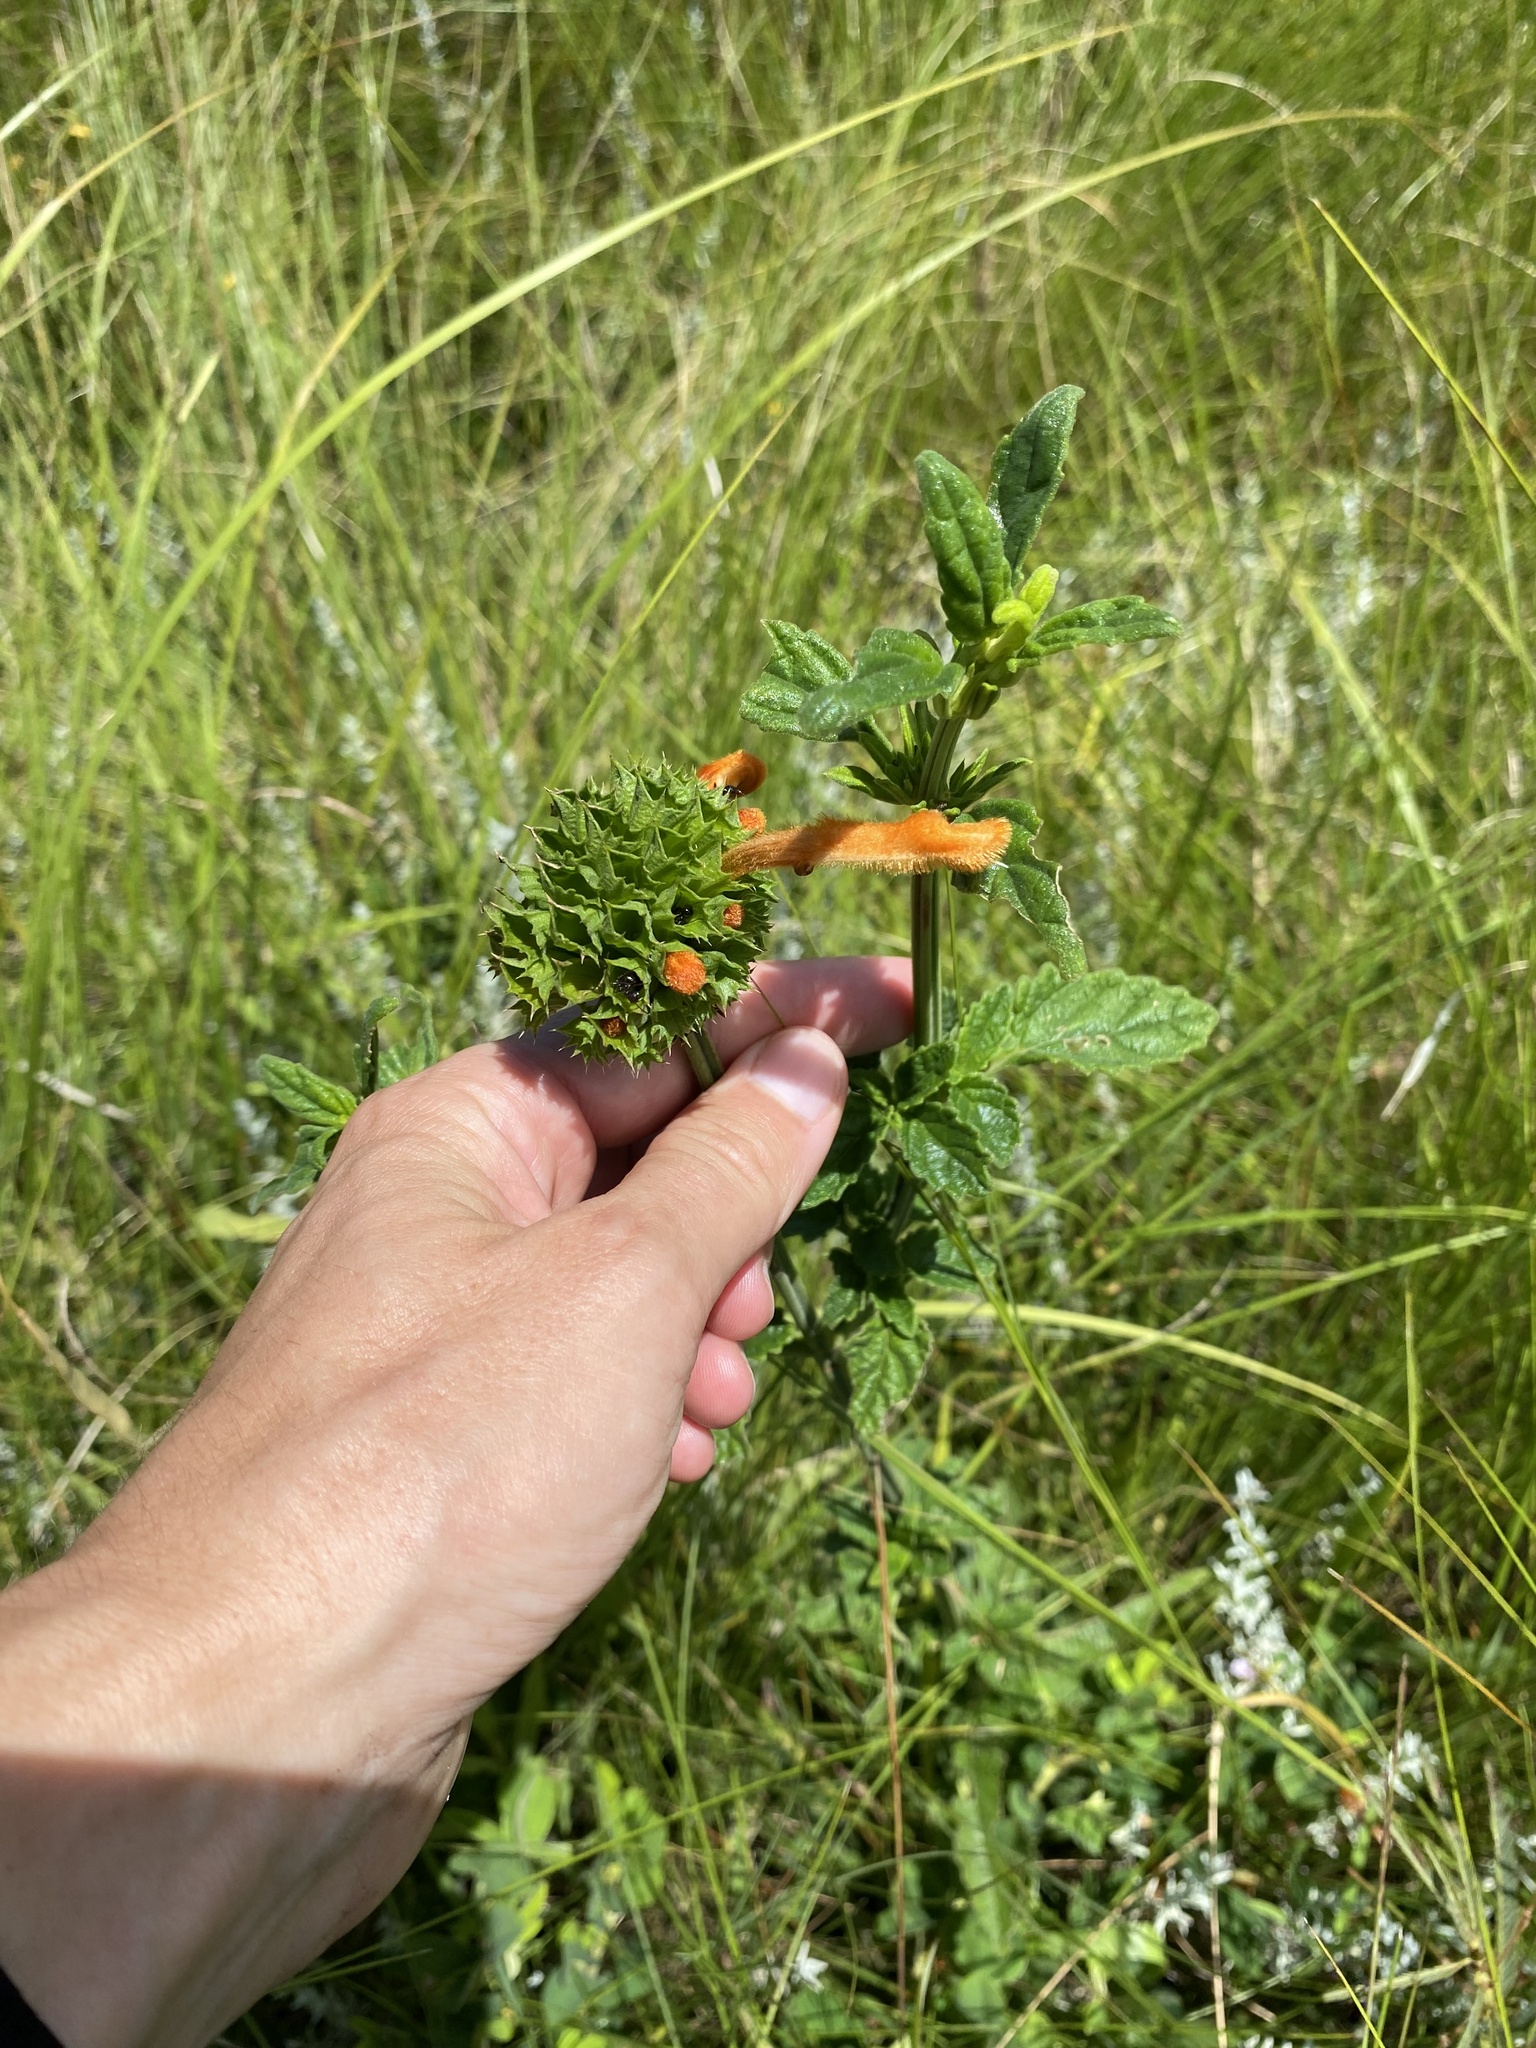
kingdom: Plantae
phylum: Tracheophyta
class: Magnoliopsida
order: Lamiales
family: Lamiaceae
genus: Leonotis
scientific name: Leonotis ocymifolia
